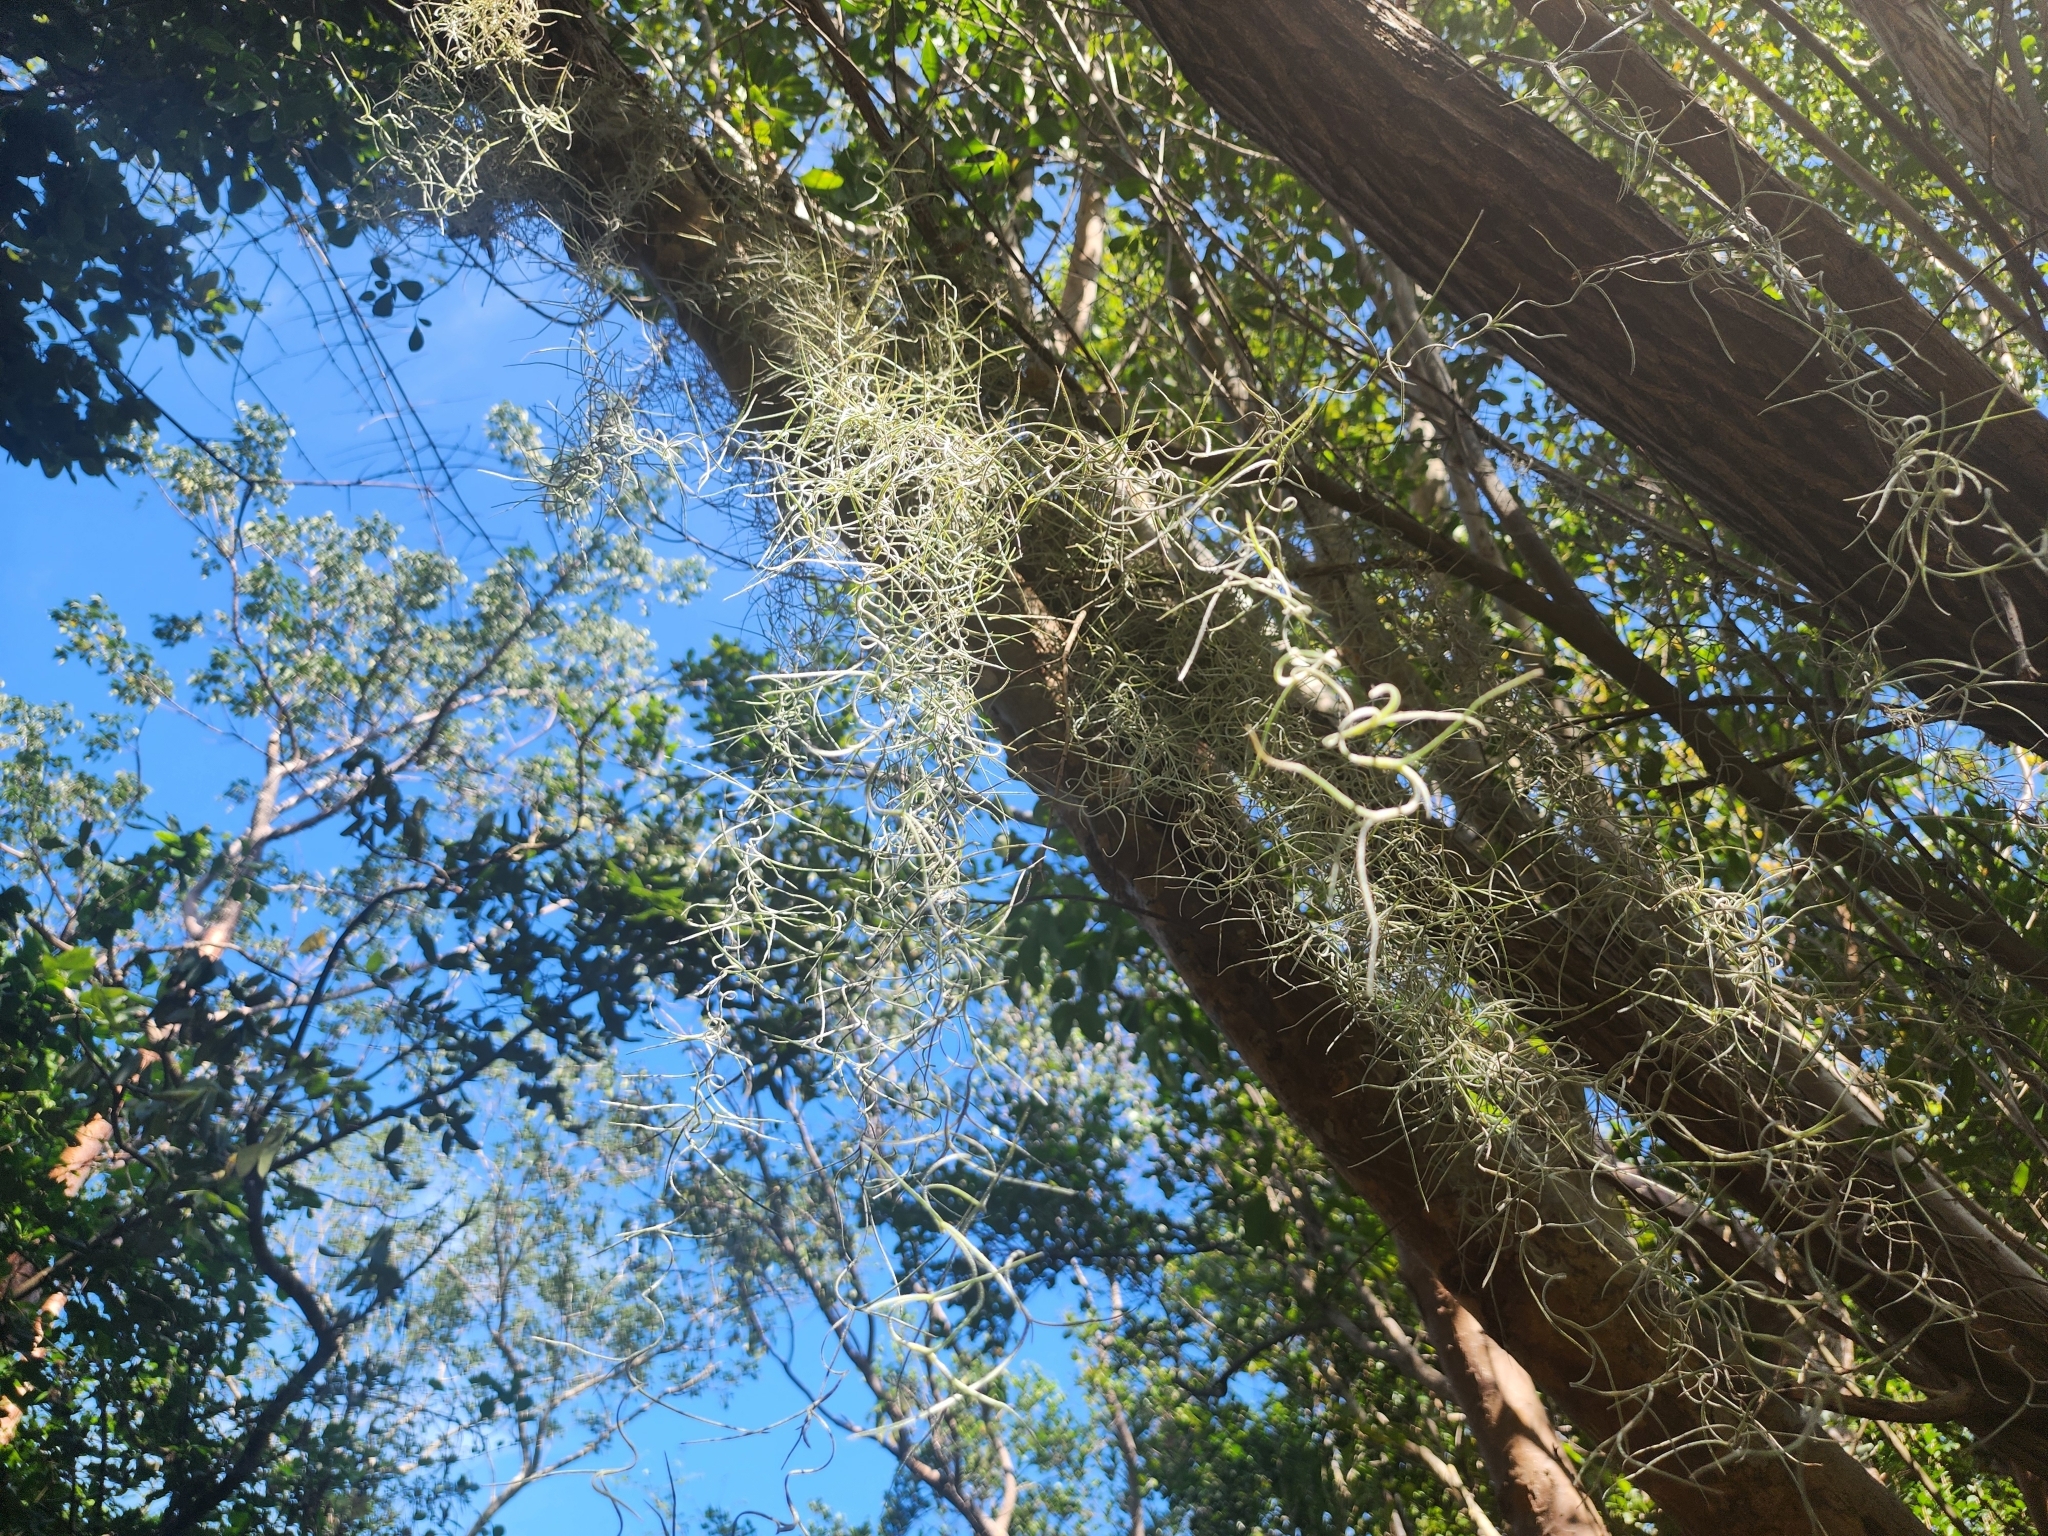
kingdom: Plantae
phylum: Tracheophyta
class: Liliopsida
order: Poales
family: Bromeliaceae
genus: Tillandsia
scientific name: Tillandsia usneoides
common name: Spanish moss
